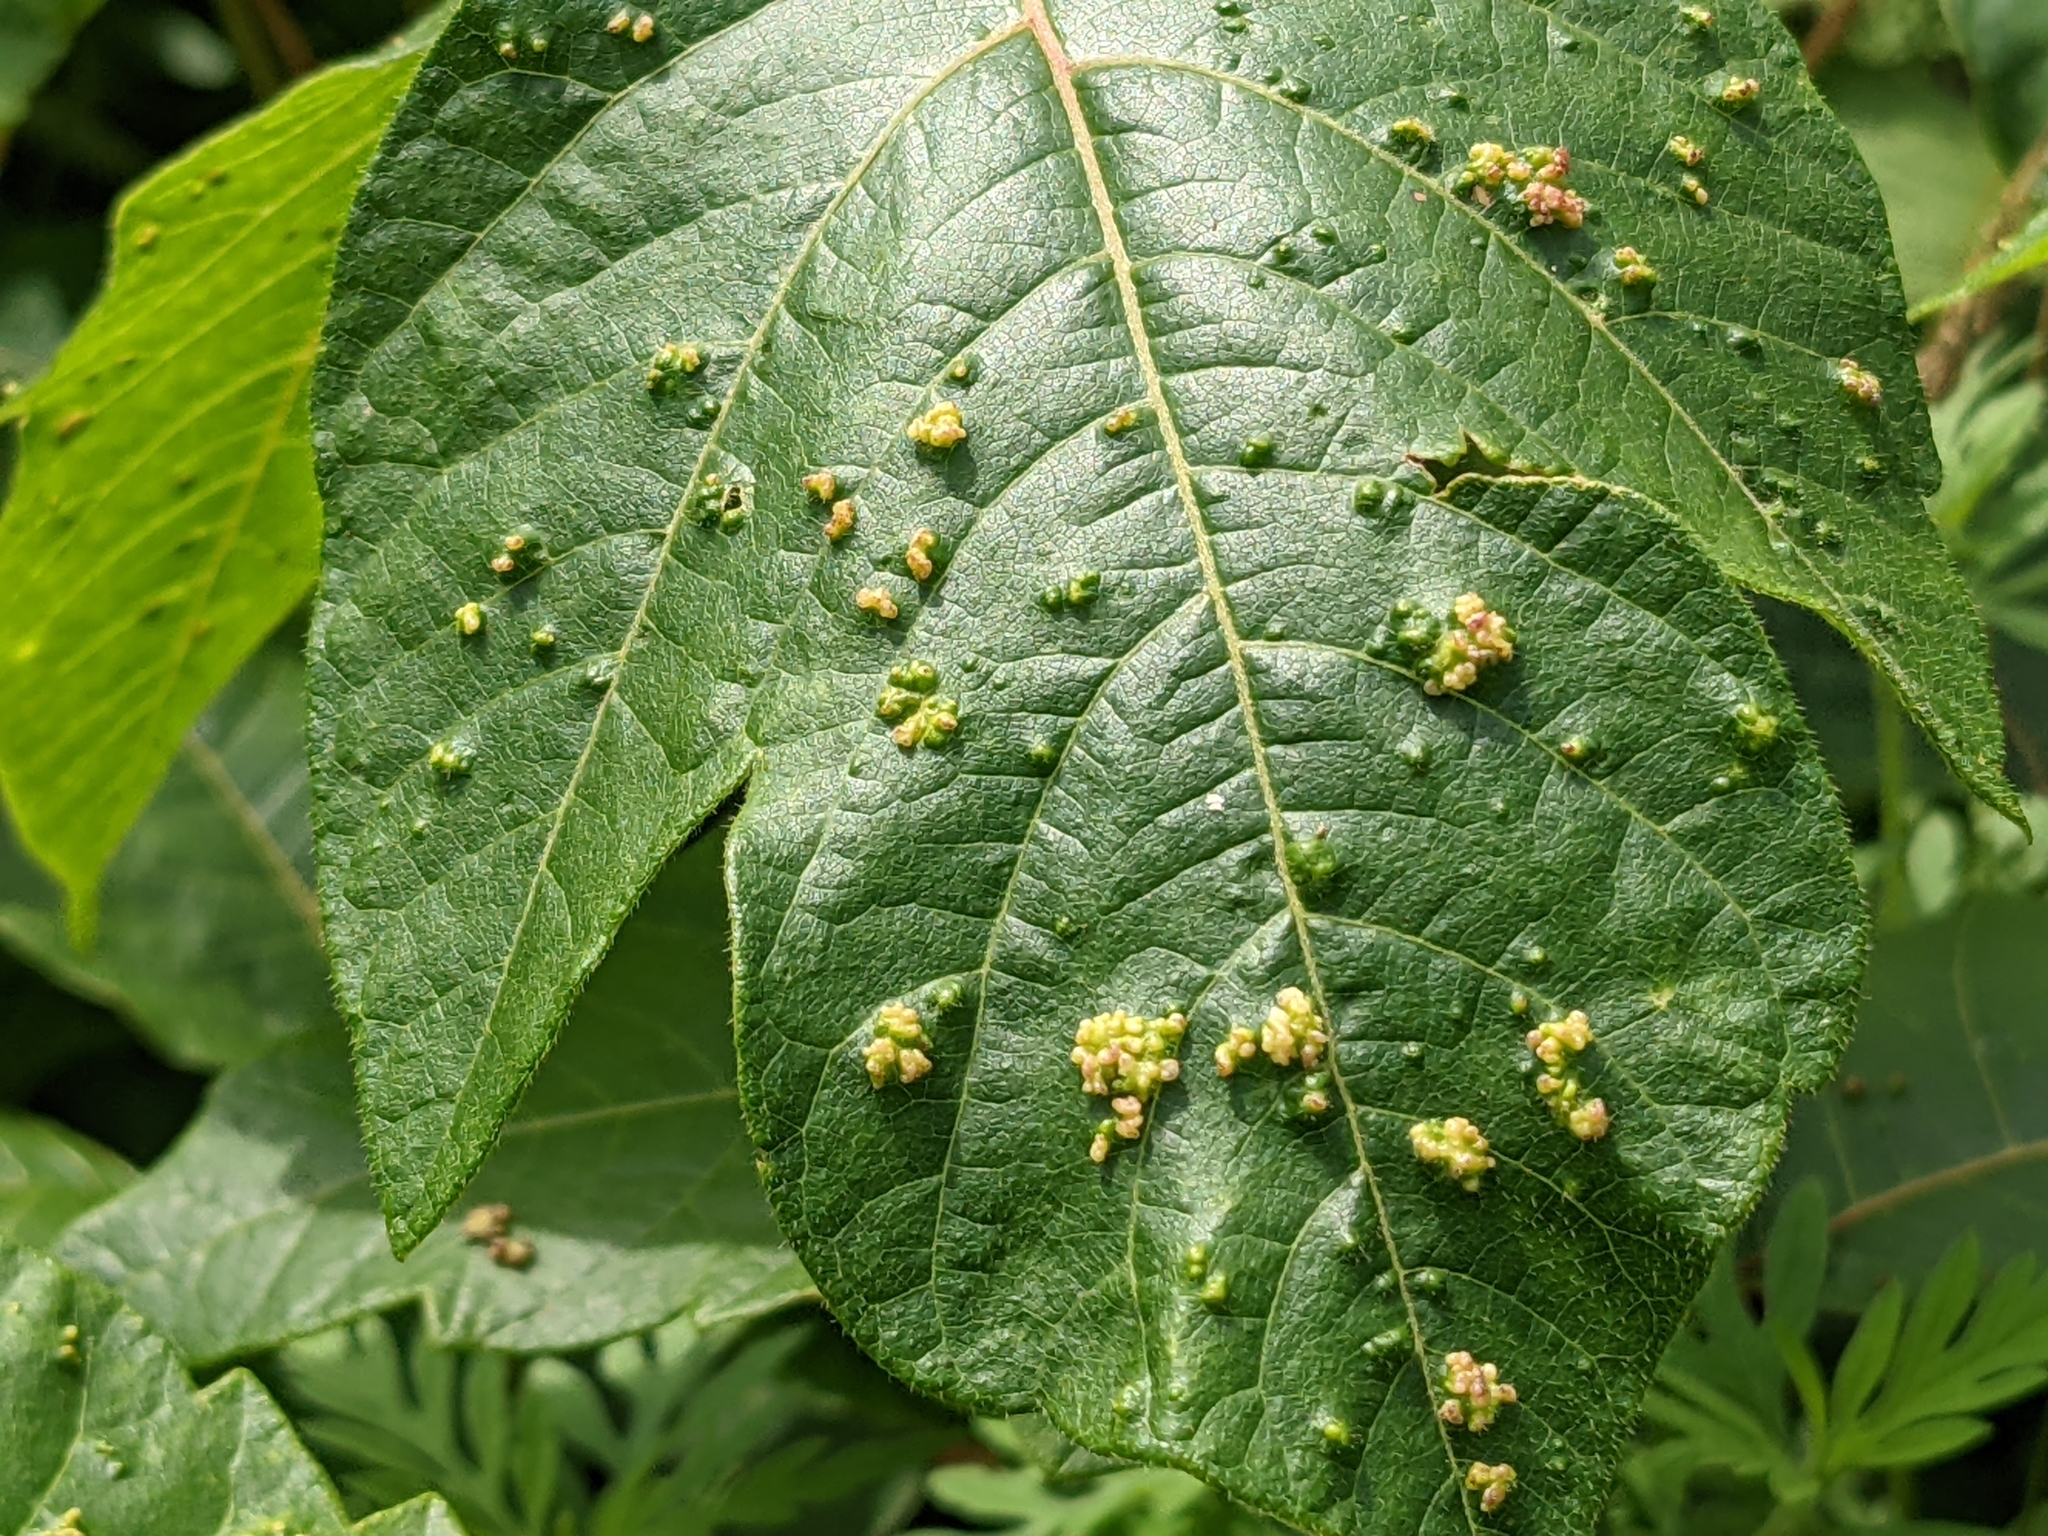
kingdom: Animalia
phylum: Arthropoda
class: Arachnida
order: Trombidiformes
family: Eriophyidae
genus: Aculops
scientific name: Aculops
